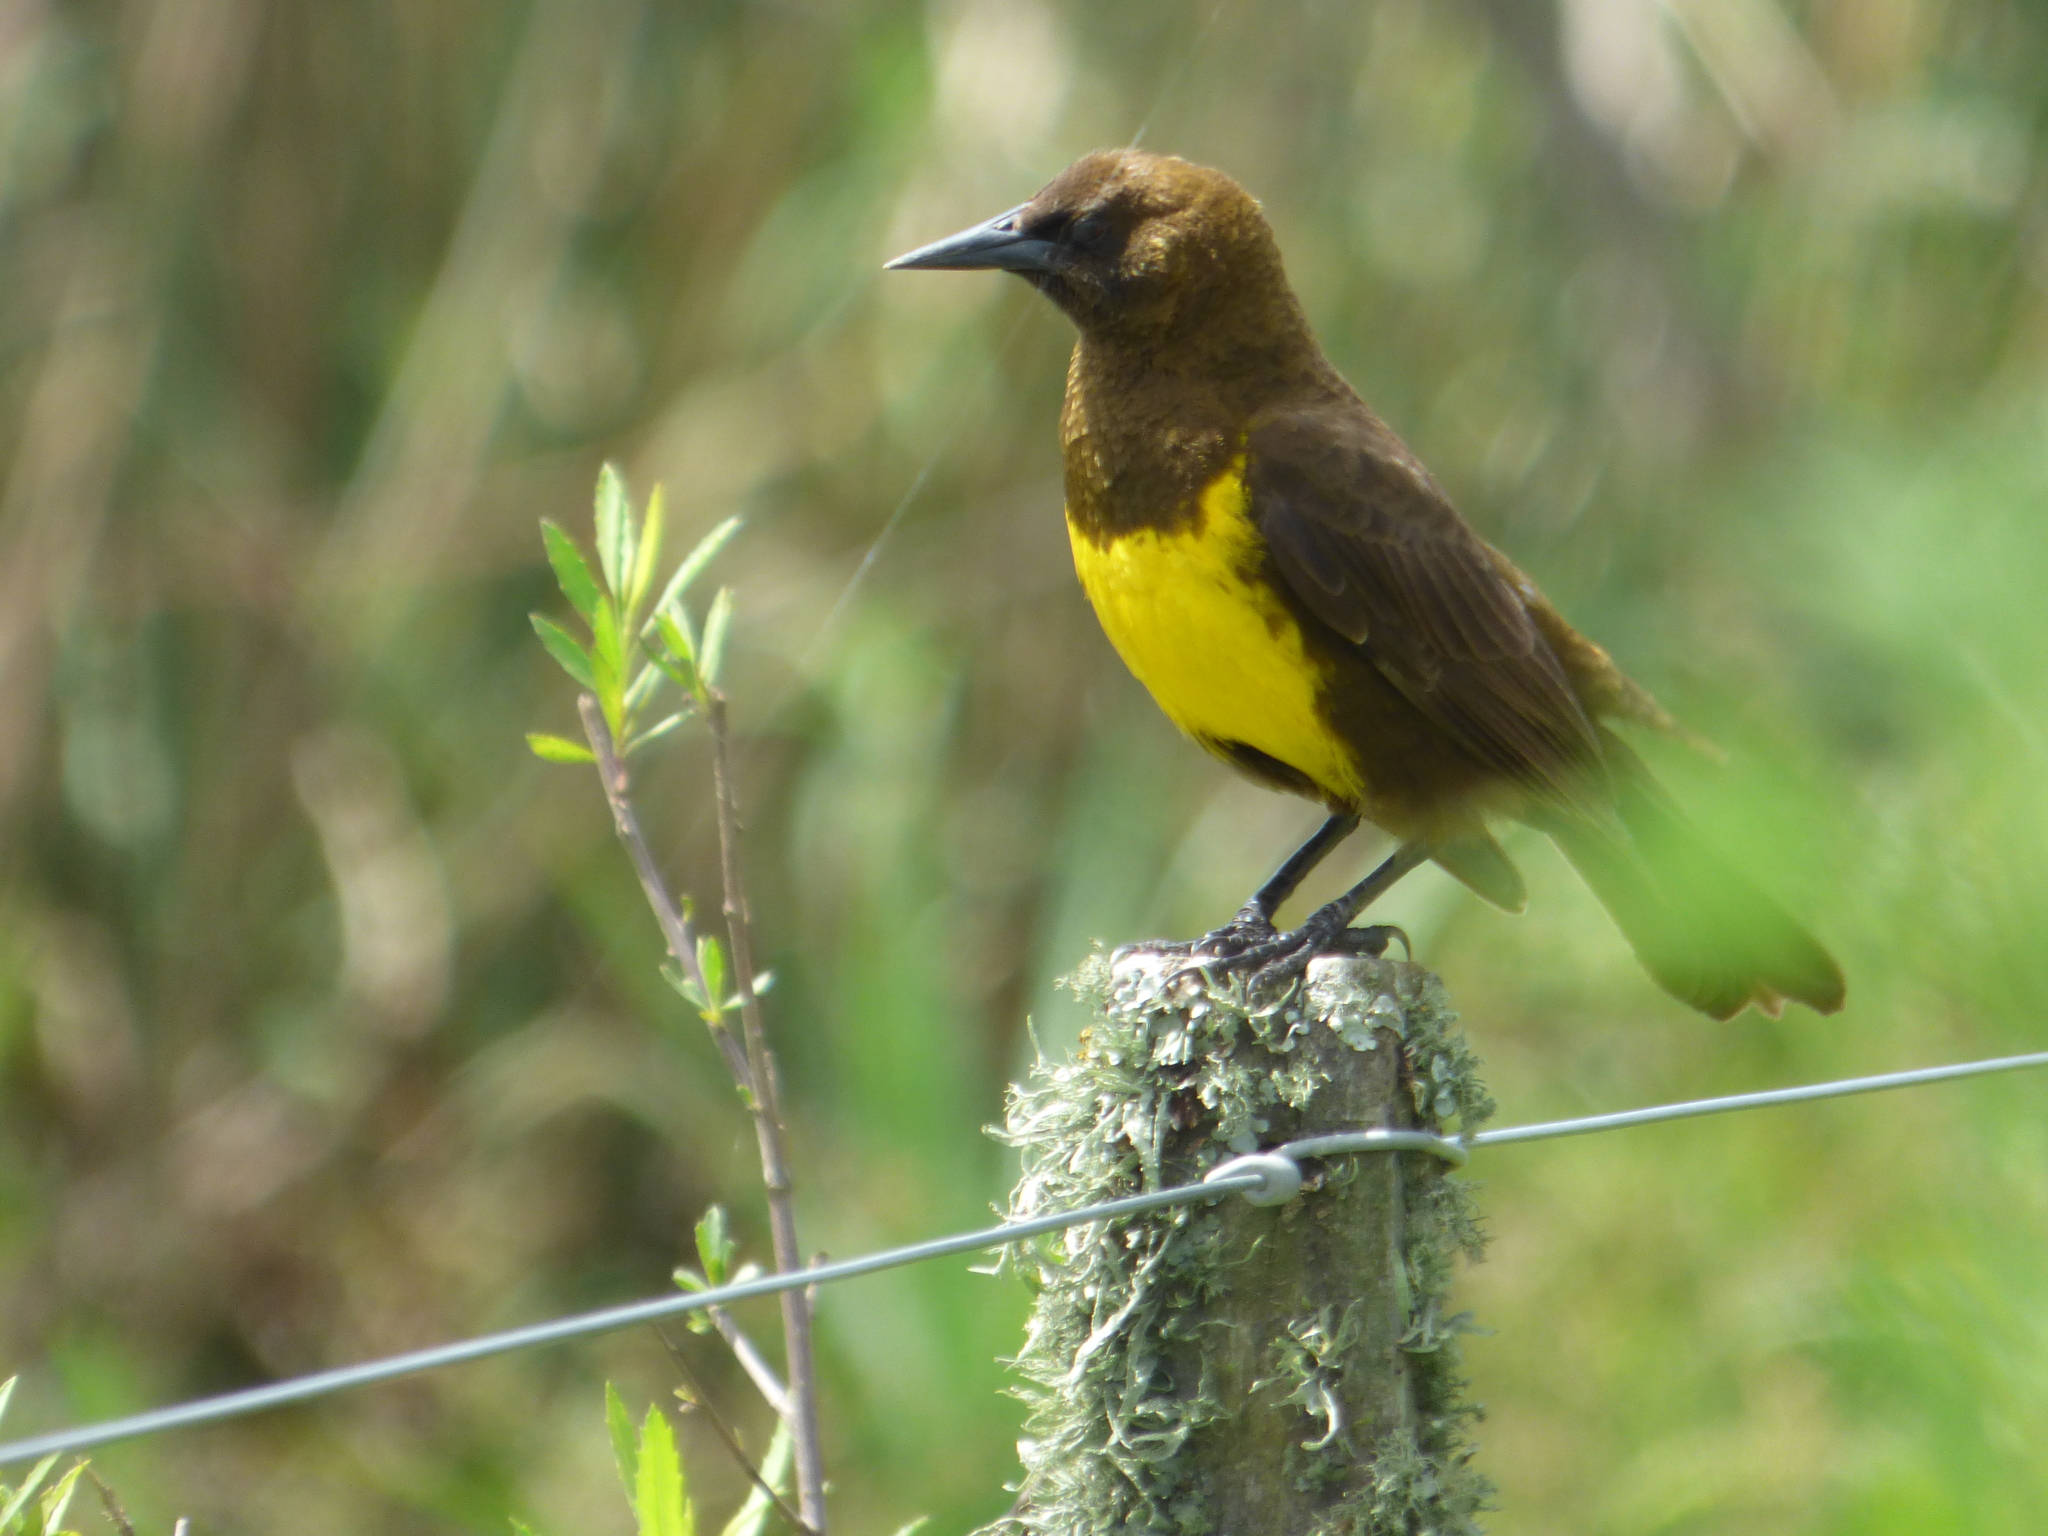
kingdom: Animalia
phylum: Chordata
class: Aves
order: Passeriformes
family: Icteridae
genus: Pseudoleistes
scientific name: Pseudoleistes virescens
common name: Brown-and-yellow marshbird
